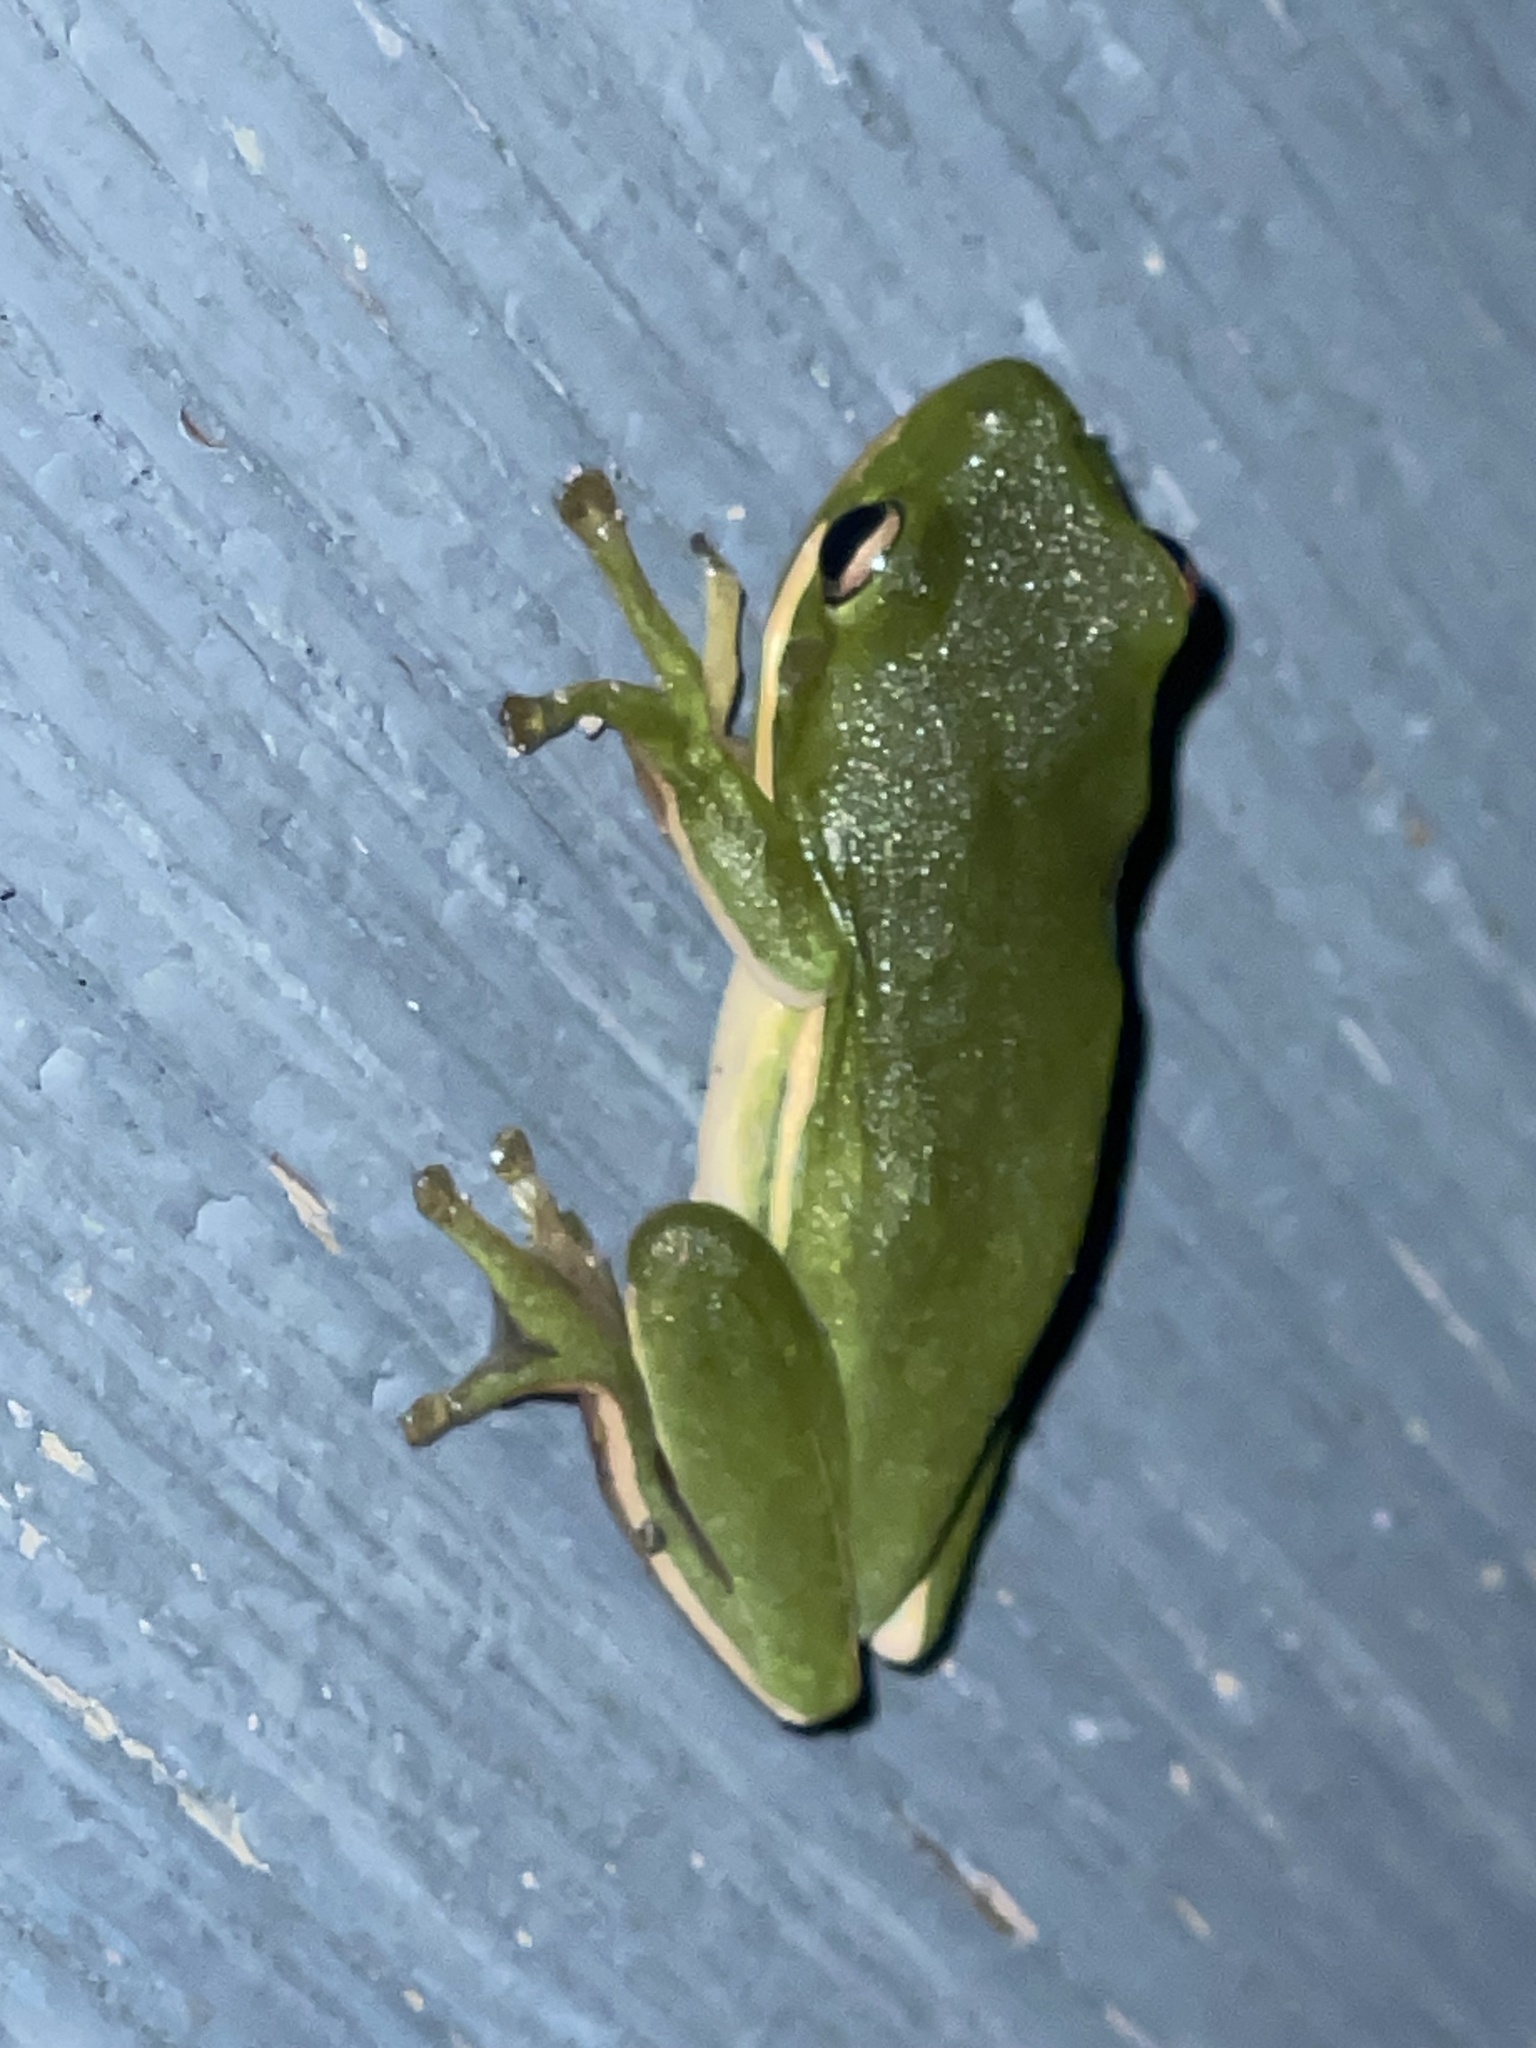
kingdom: Animalia
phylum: Chordata
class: Amphibia
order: Anura
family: Hylidae
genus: Dryophytes
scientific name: Dryophytes cinereus
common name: Green treefrog
